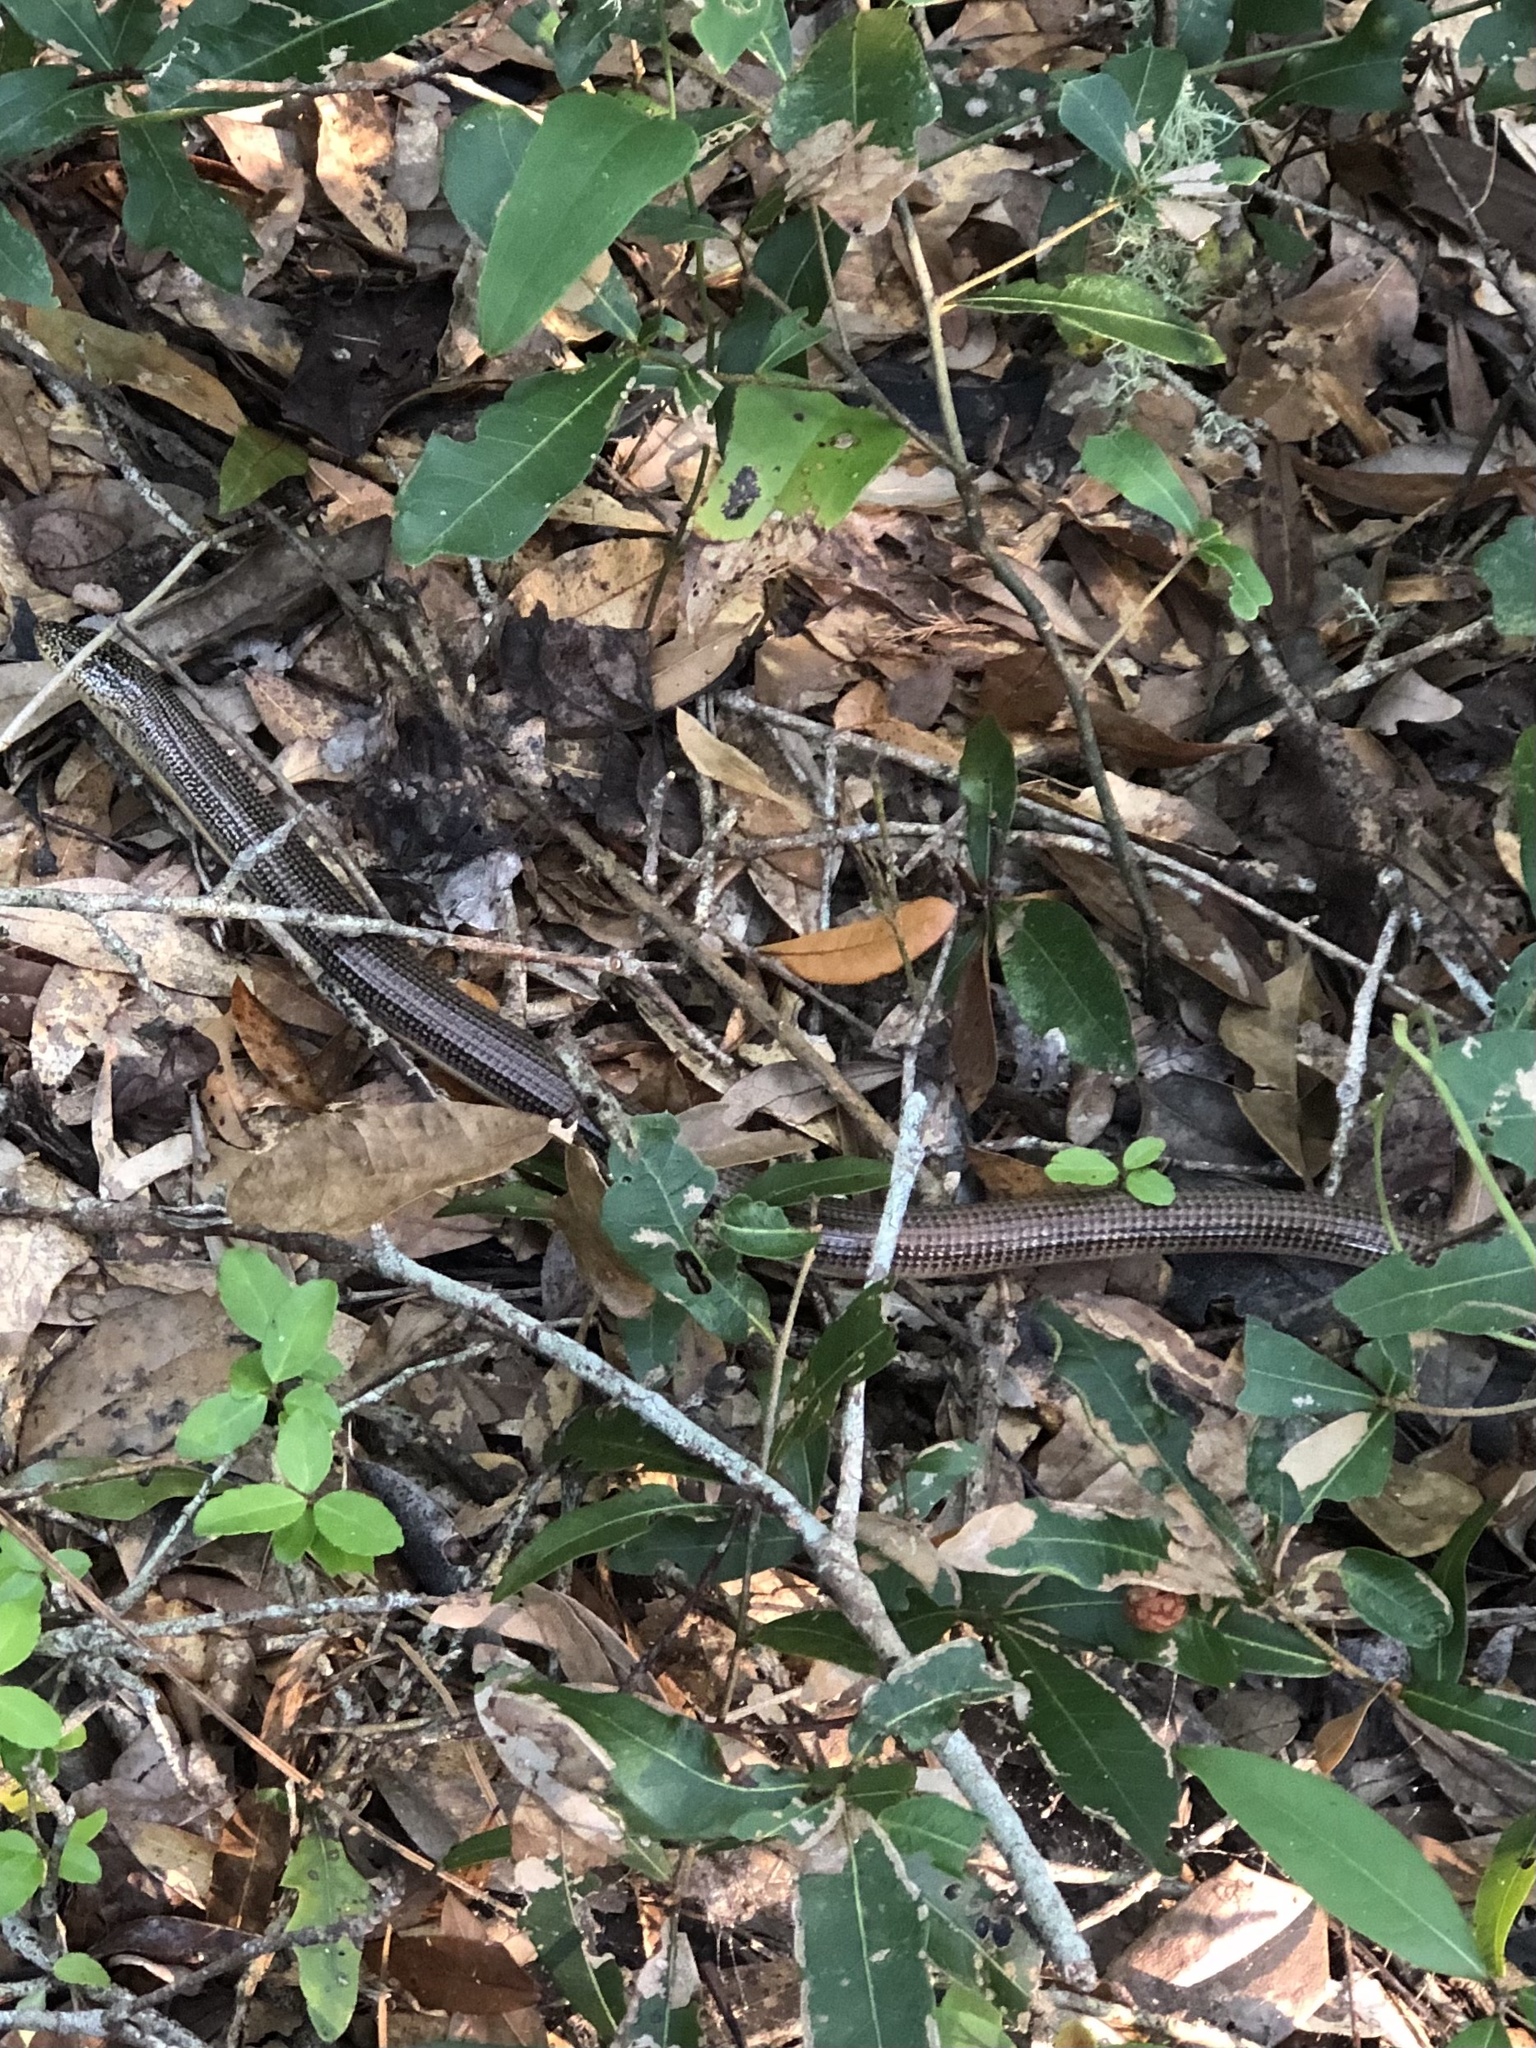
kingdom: Animalia
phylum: Chordata
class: Squamata
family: Anguidae
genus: Ophisaurus
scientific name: Ophisaurus ventralis
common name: Eastern glass lizard
